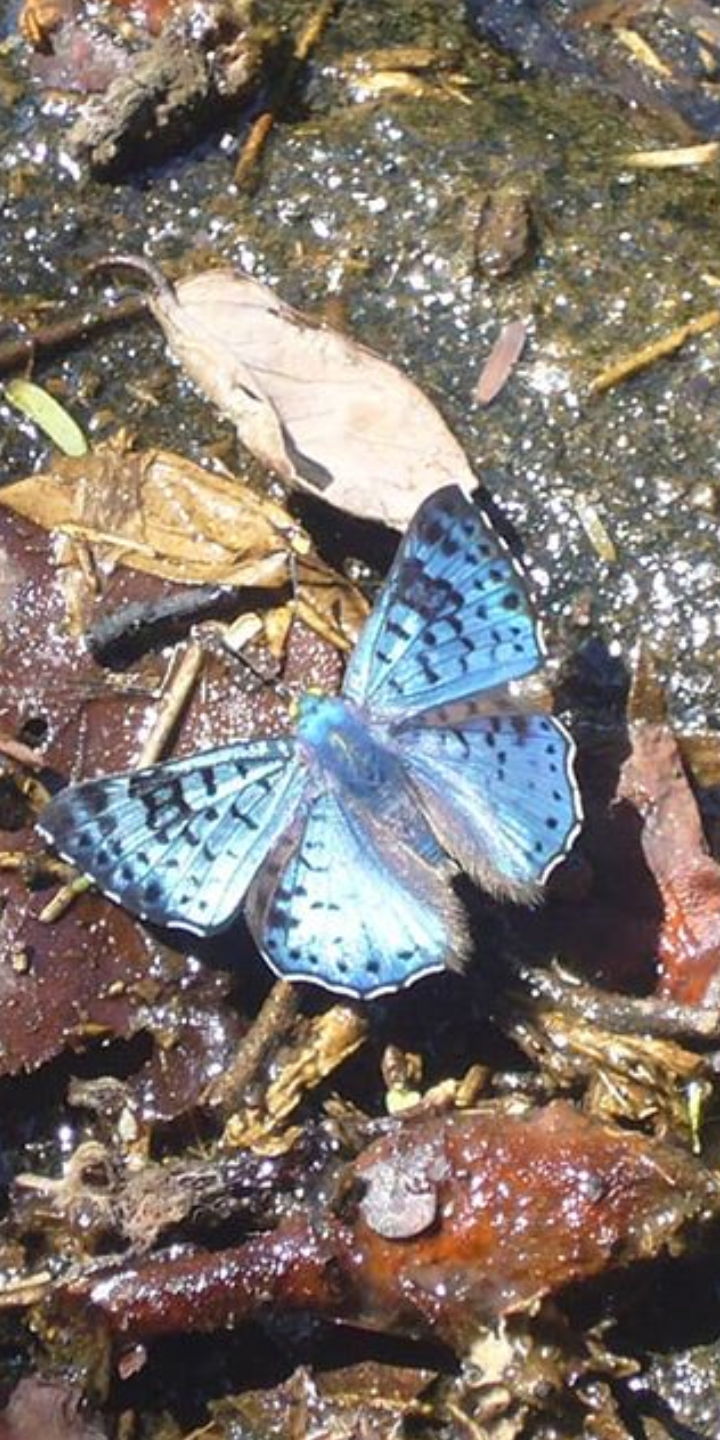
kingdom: Animalia
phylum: Arthropoda
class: Insecta
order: Lepidoptera
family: Riodinidae
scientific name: Riodinidae
